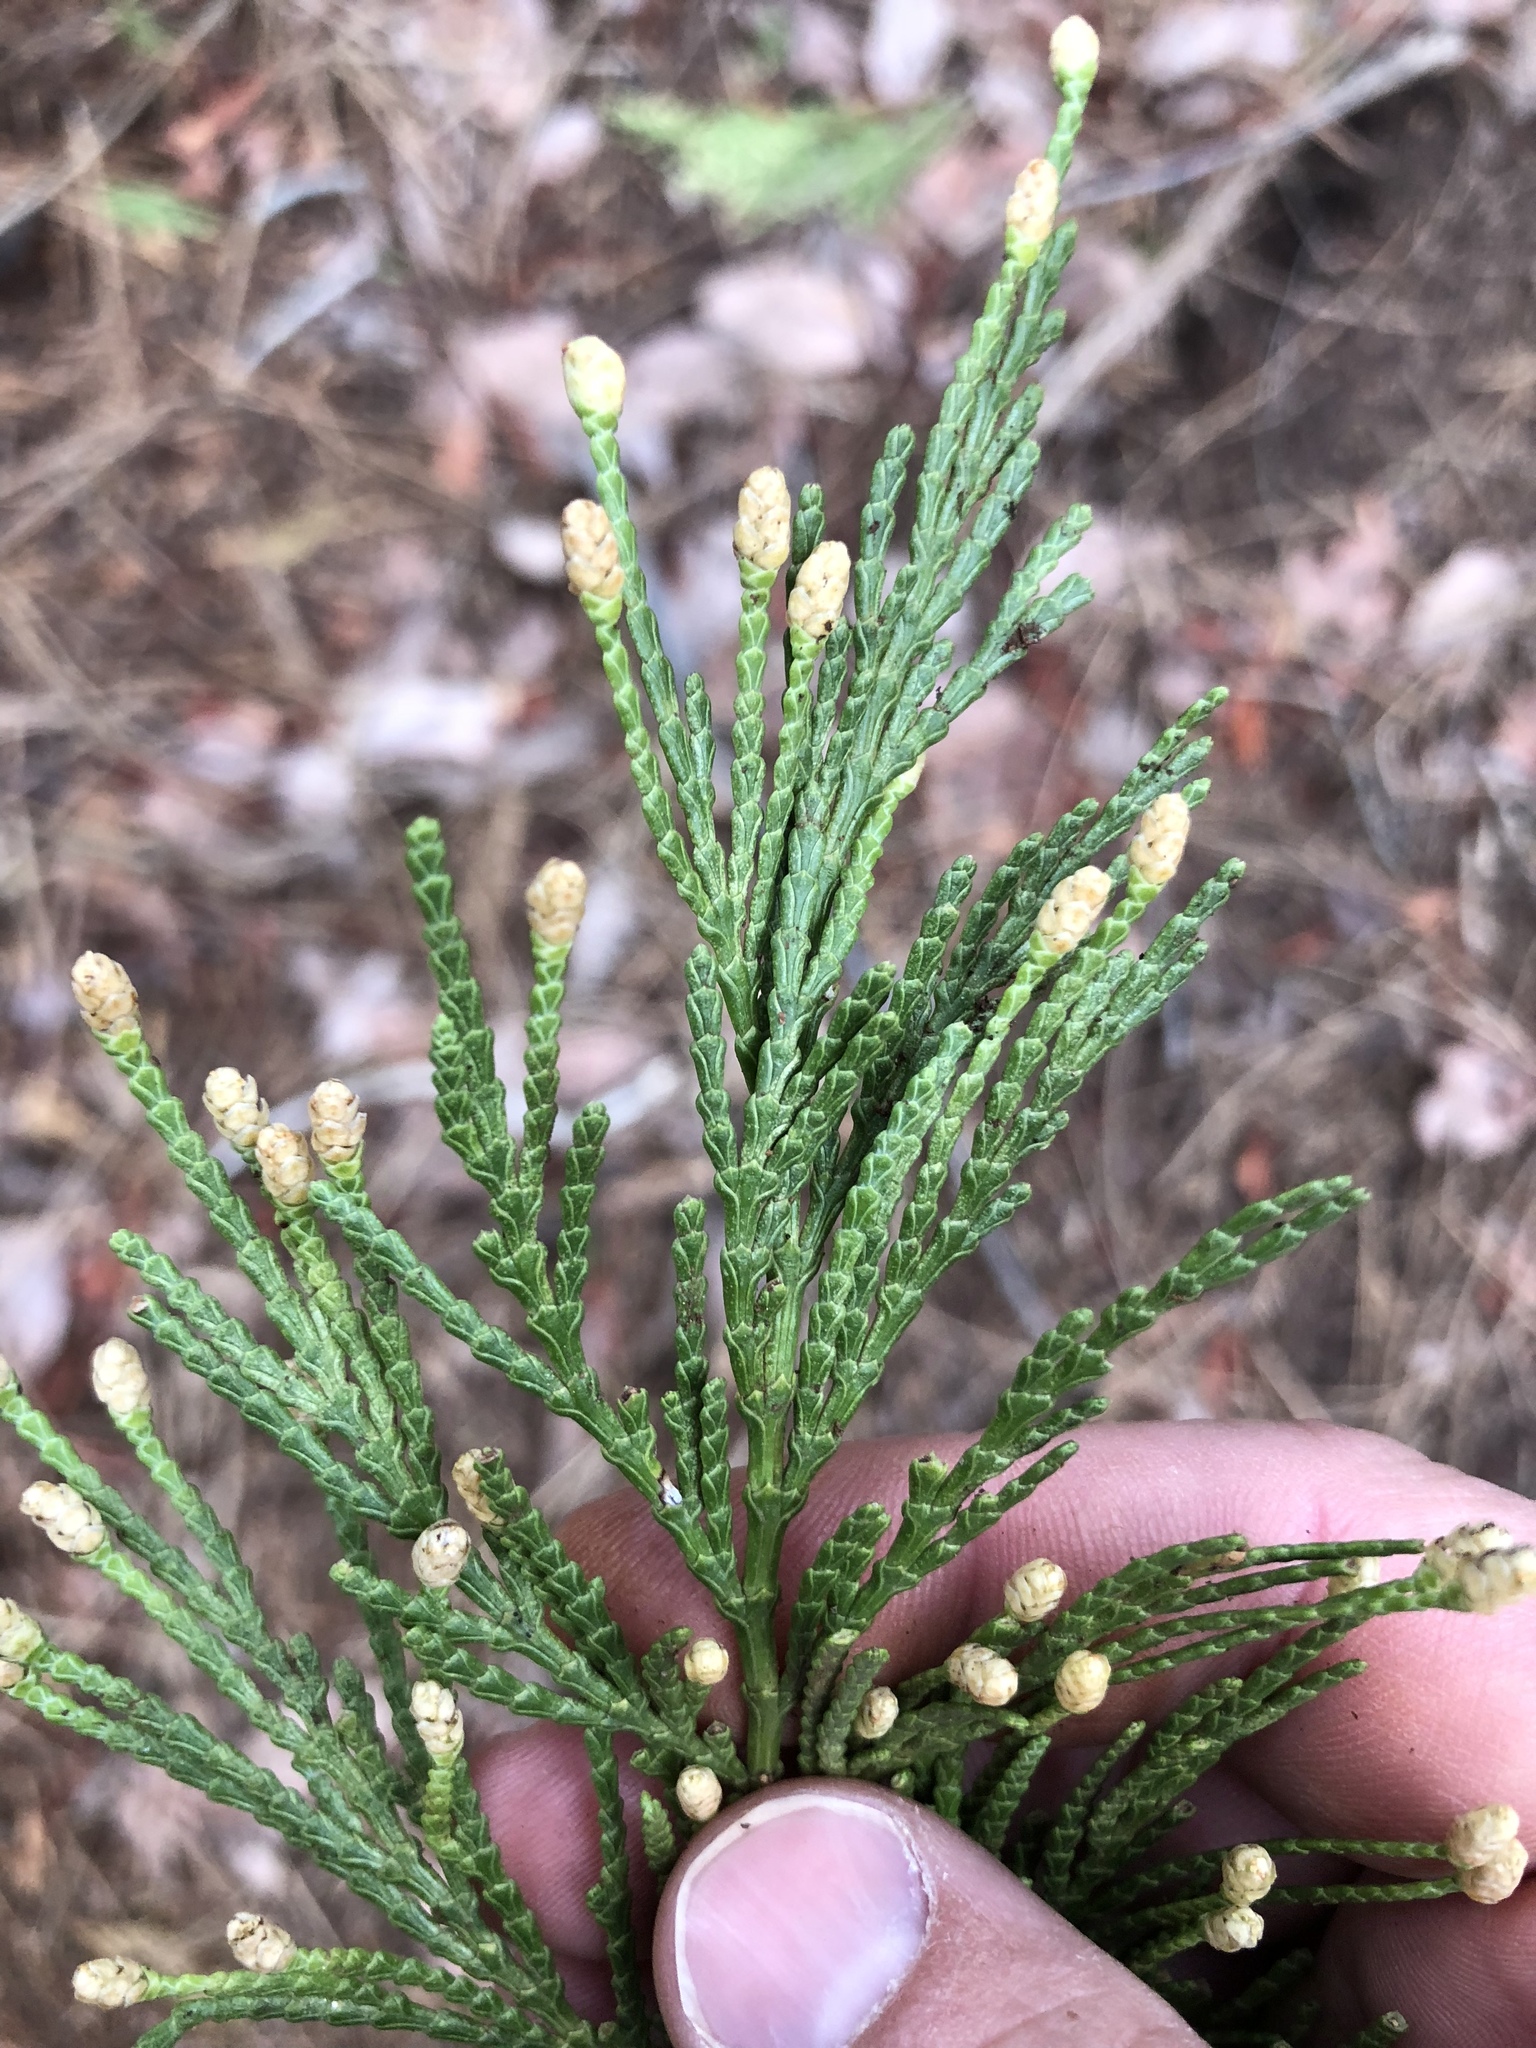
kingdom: Plantae
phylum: Tracheophyta
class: Pinopsida
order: Pinales
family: Cupressaceae
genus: Calocedrus
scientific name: Calocedrus decurrens
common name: Californian incense-cedar
